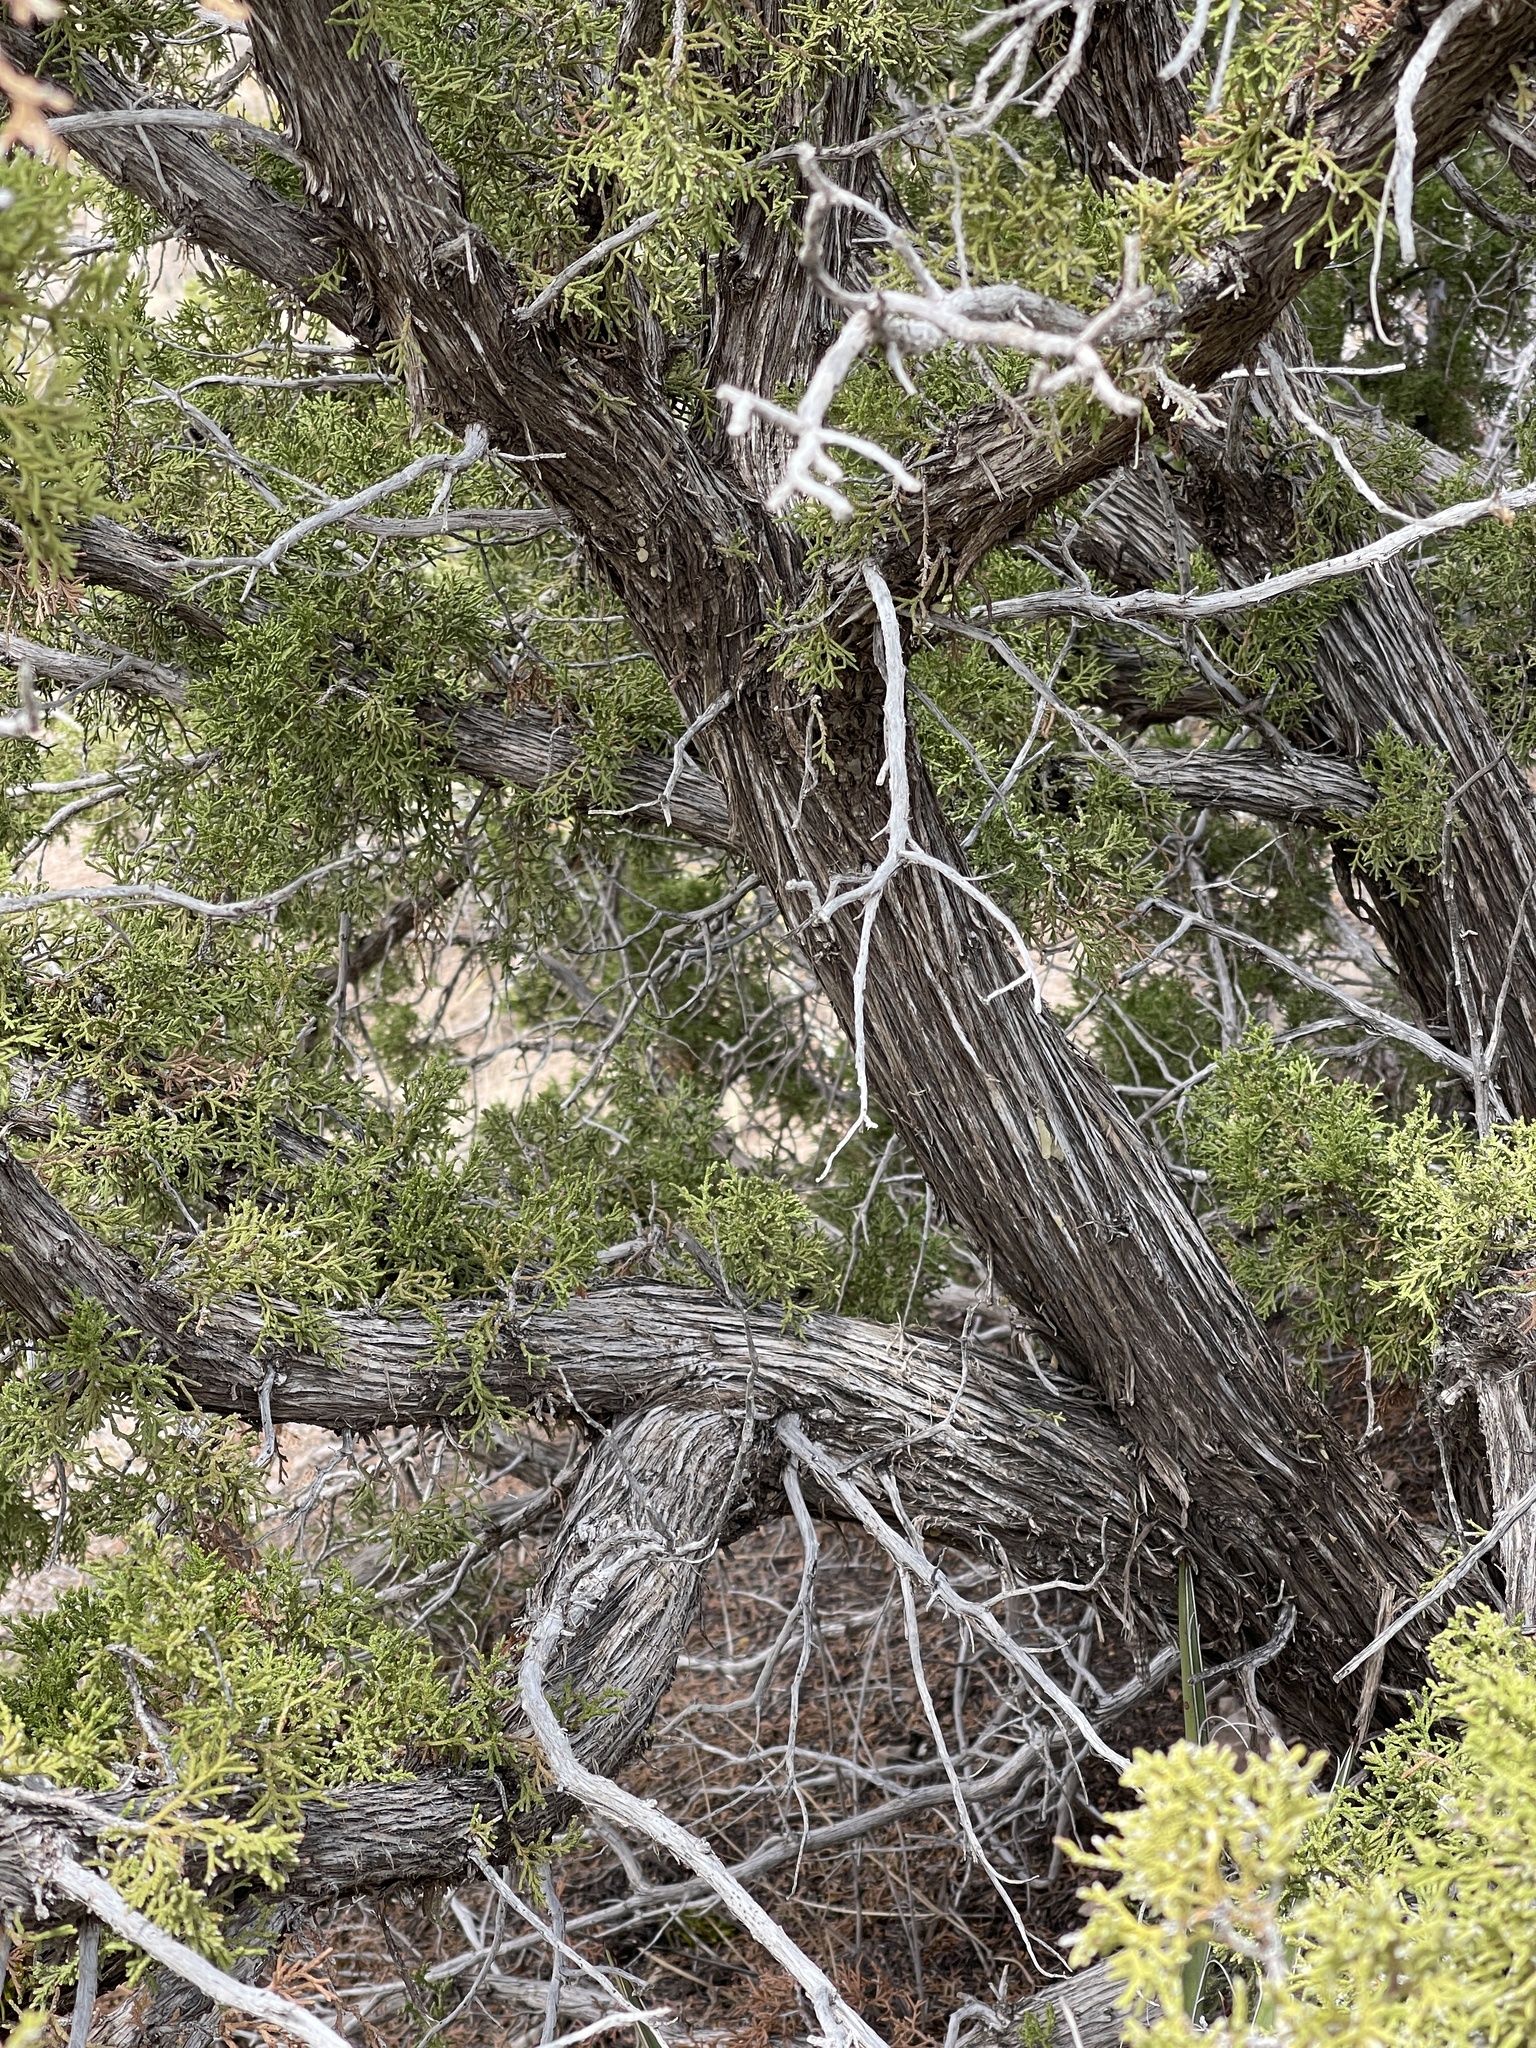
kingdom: Plantae
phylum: Tracheophyta
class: Pinopsida
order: Pinales
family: Cupressaceae
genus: Juniperus
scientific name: Juniperus monosperma
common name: One-seed juniper
